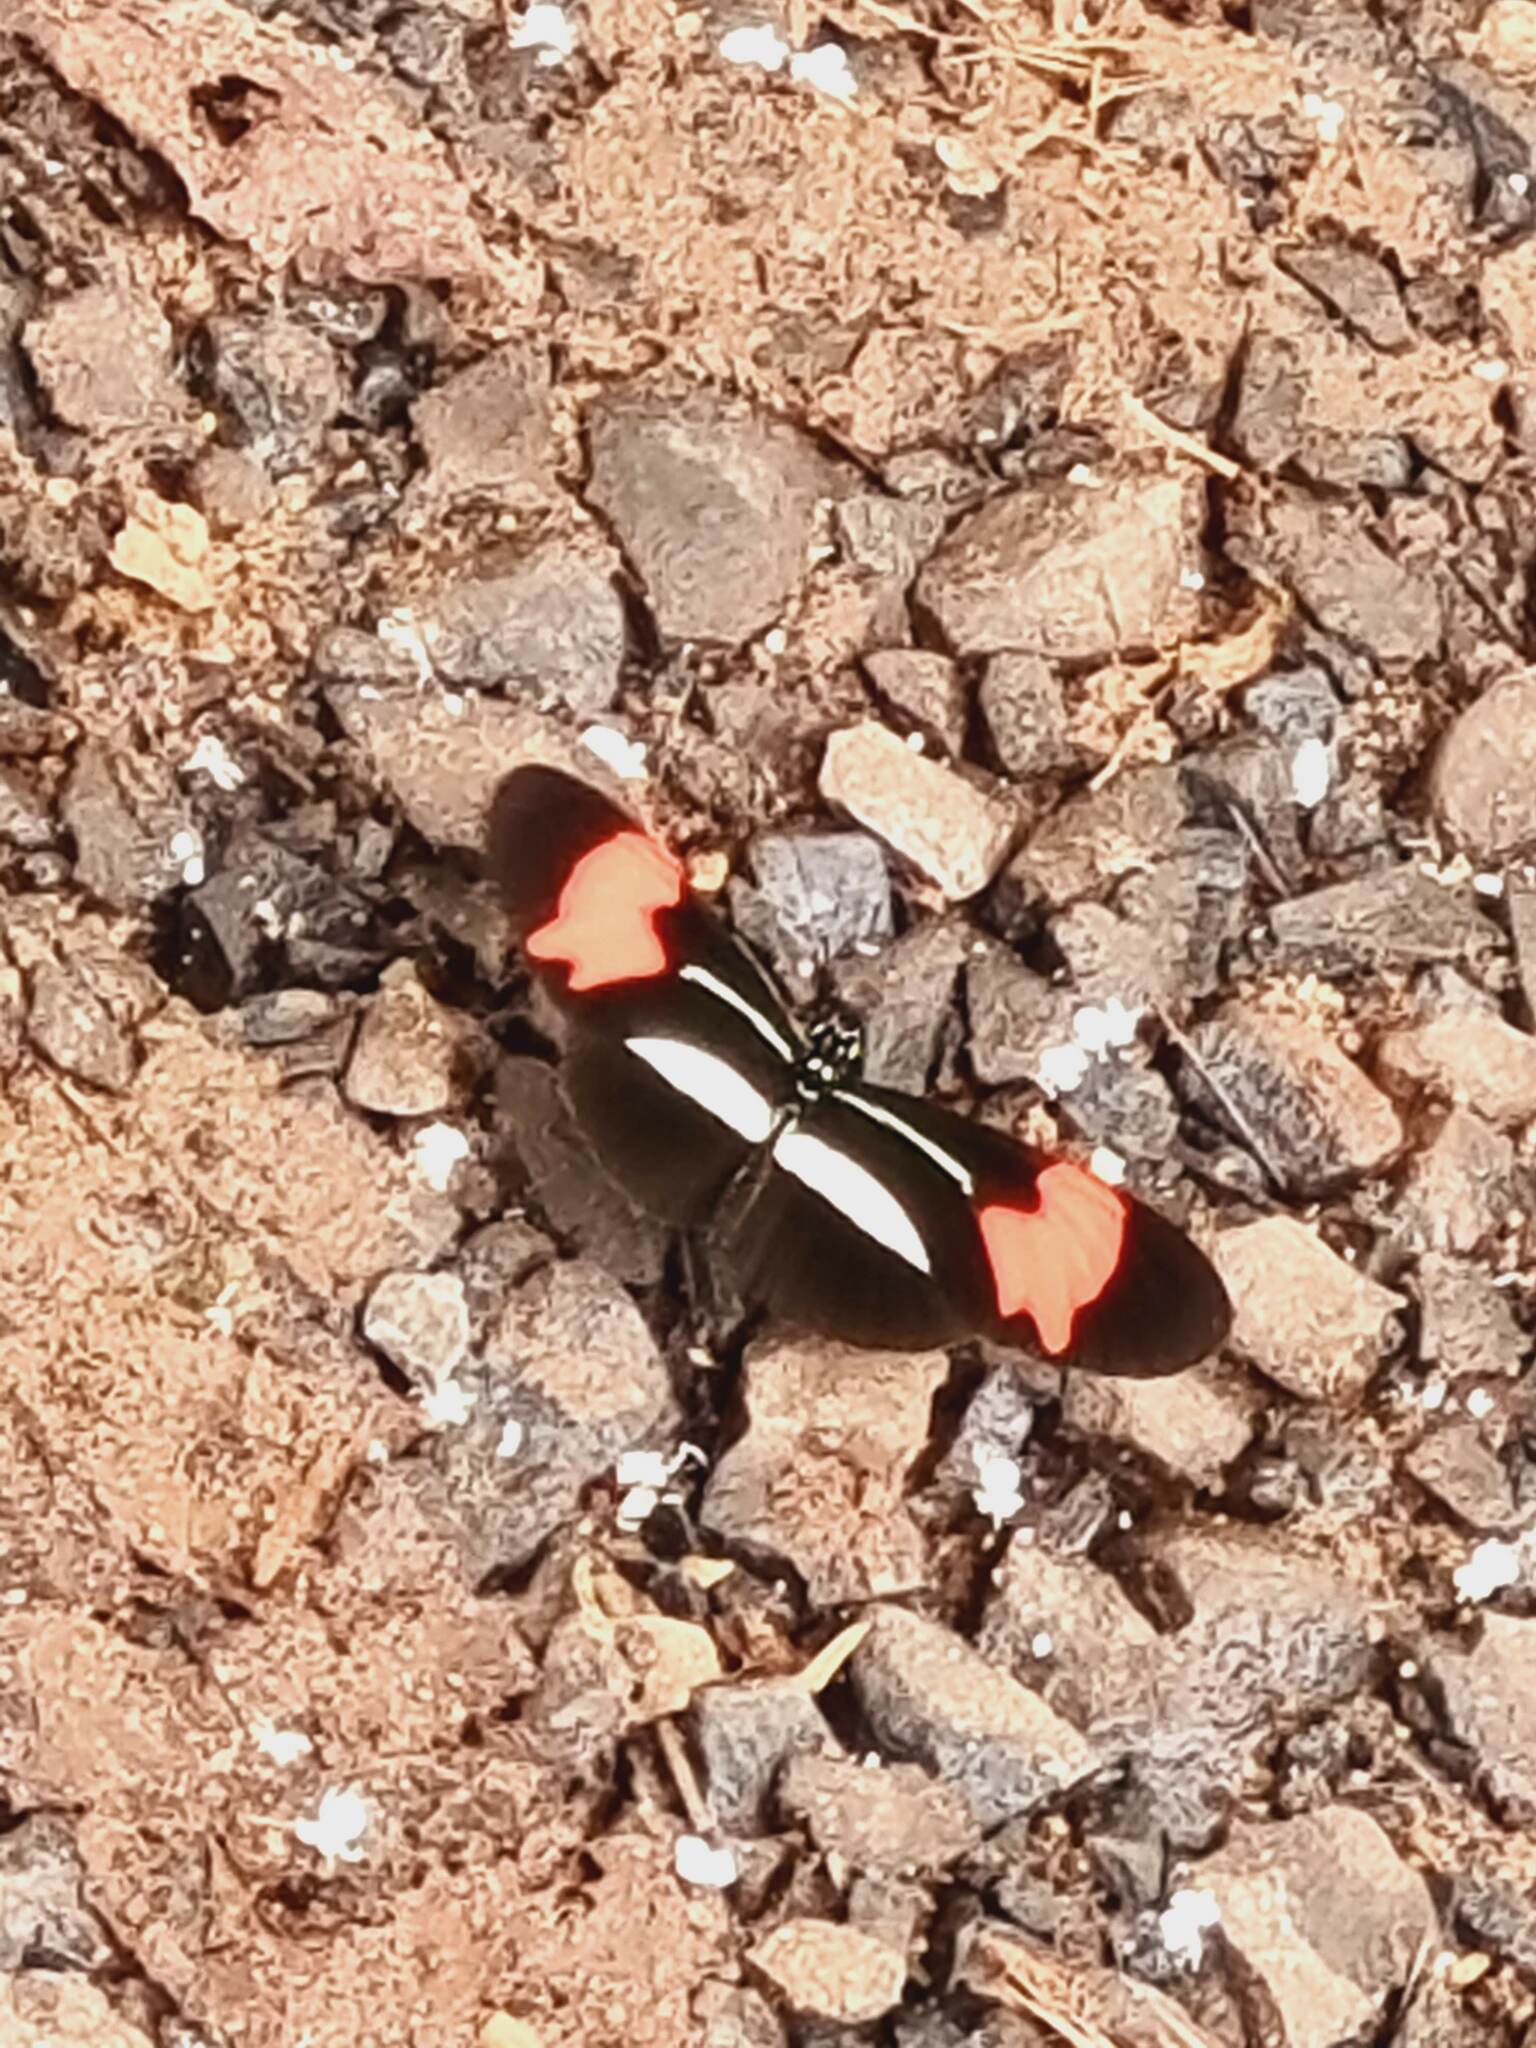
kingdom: Animalia
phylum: Arthropoda
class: Insecta
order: Lepidoptera
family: Nymphalidae
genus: Heliconius
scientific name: Heliconius erato
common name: Common patch longwing
